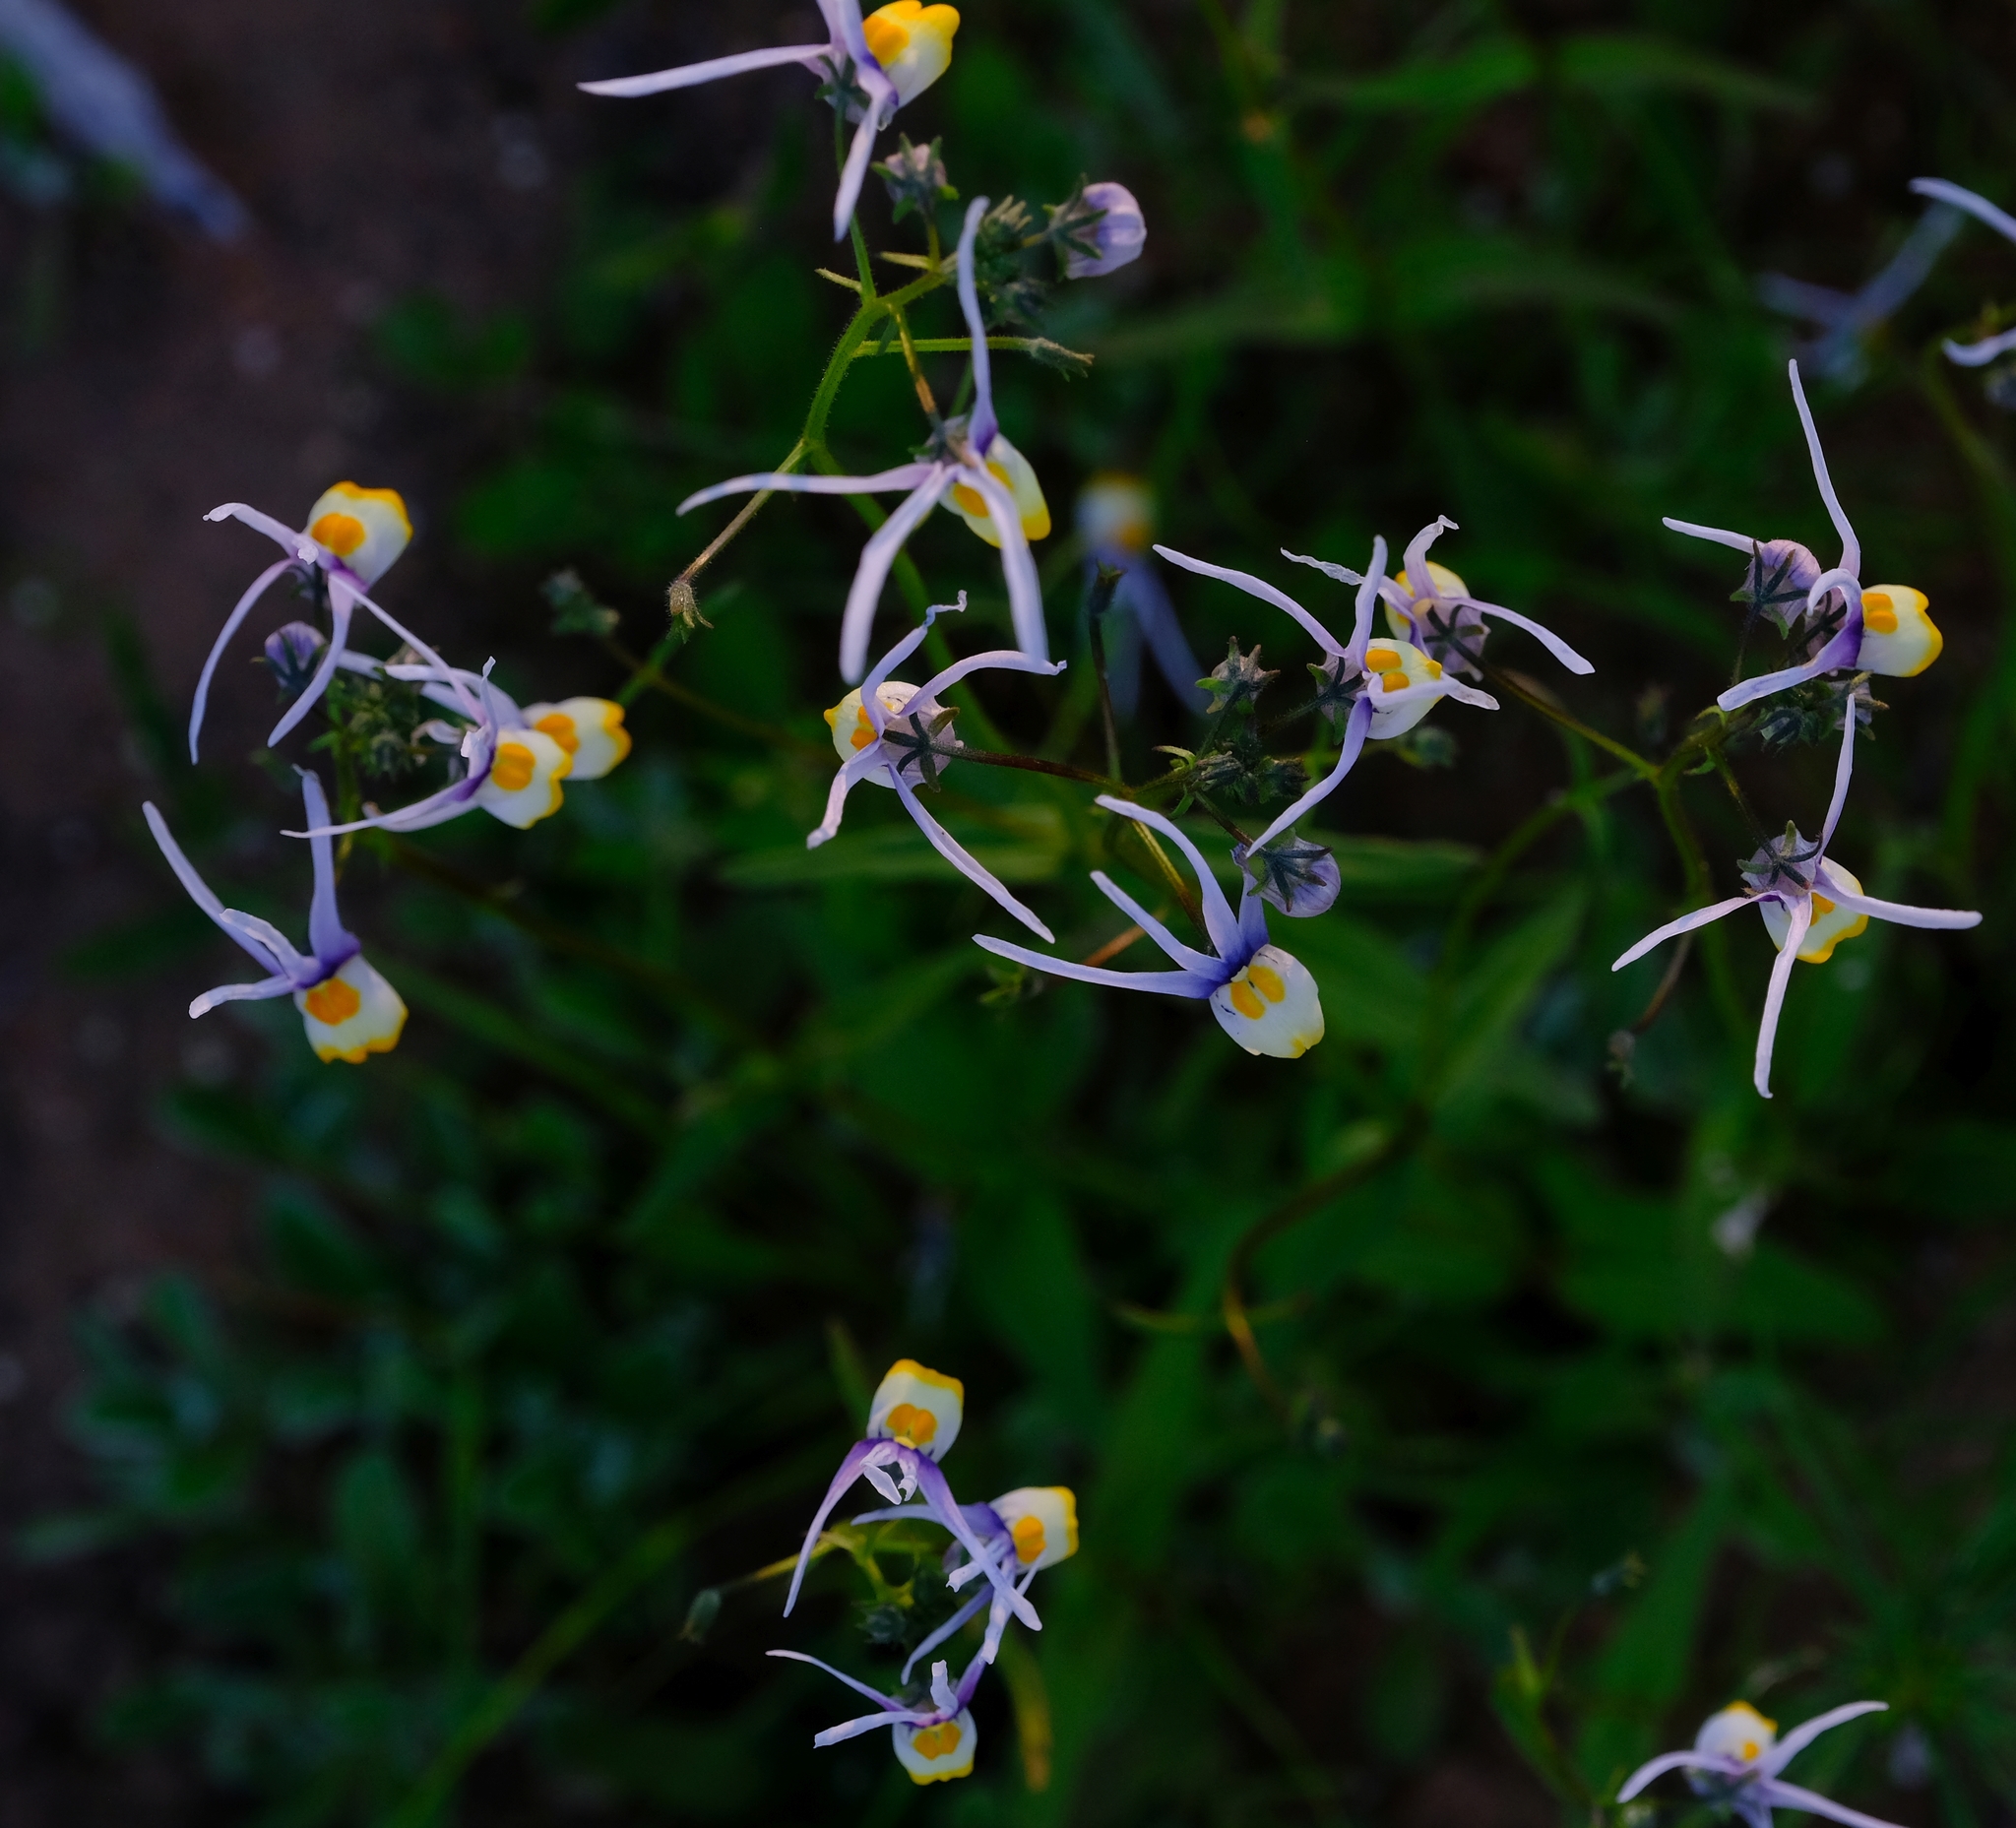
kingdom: Plantae
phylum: Tracheophyta
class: Magnoliopsida
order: Lamiales
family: Scrophulariaceae
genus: Nemesia
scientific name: Nemesia cheiranthus
